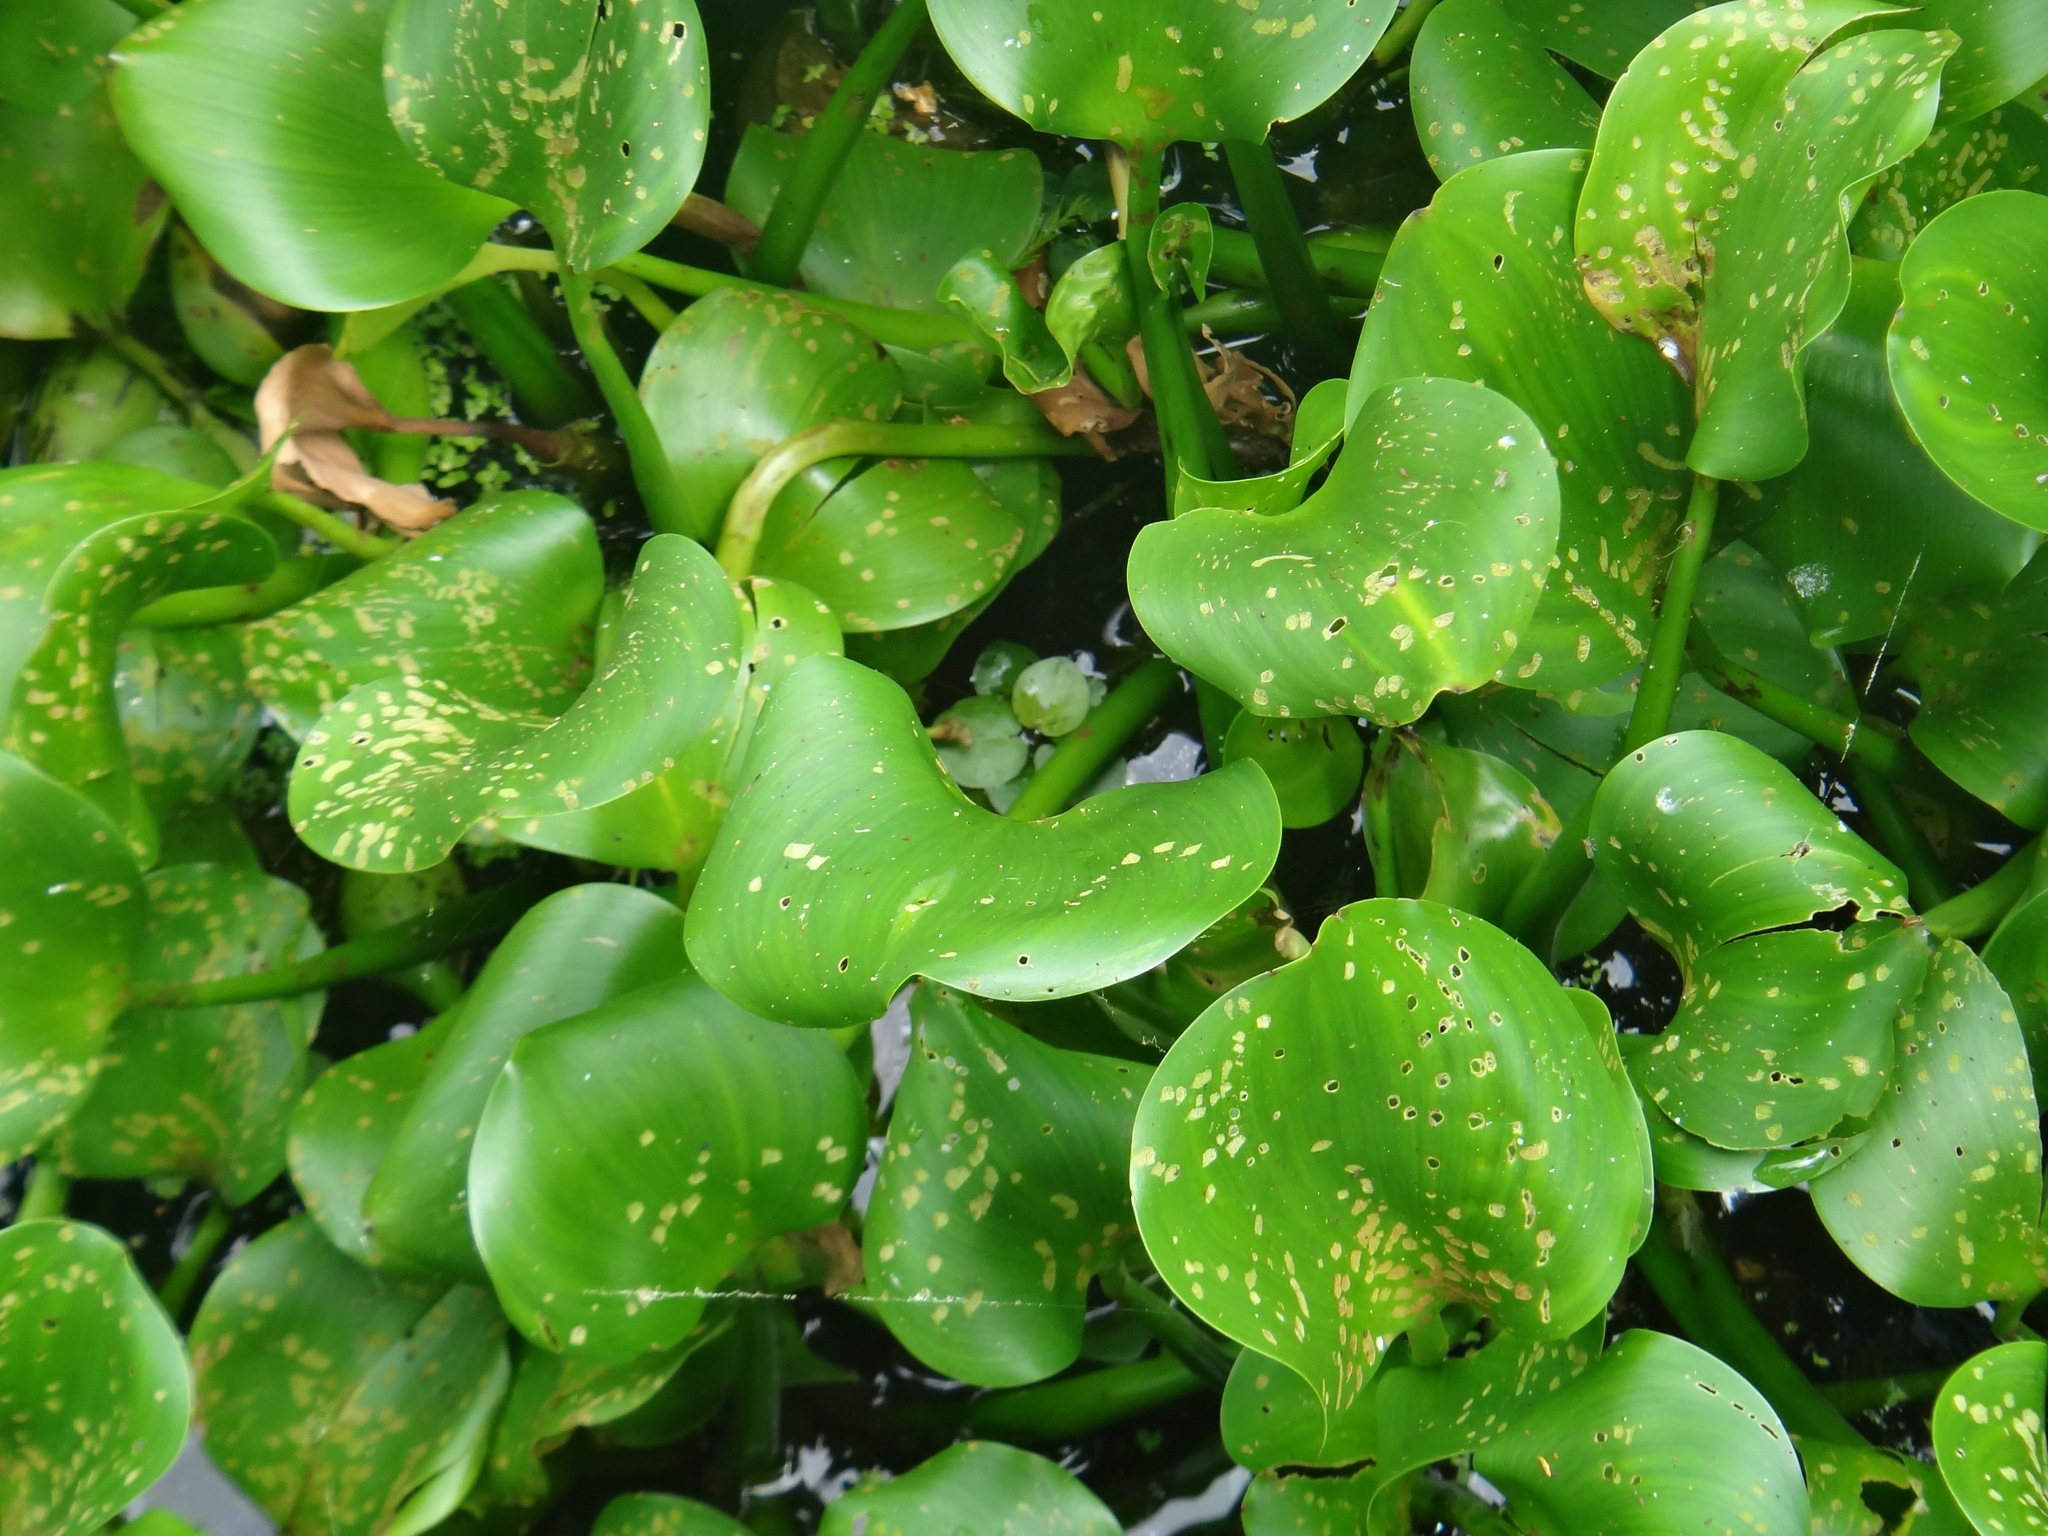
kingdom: Plantae
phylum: Tracheophyta
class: Liliopsida
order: Commelinales
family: Pontederiaceae
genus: Pontederia
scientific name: Pontederia crassipes
